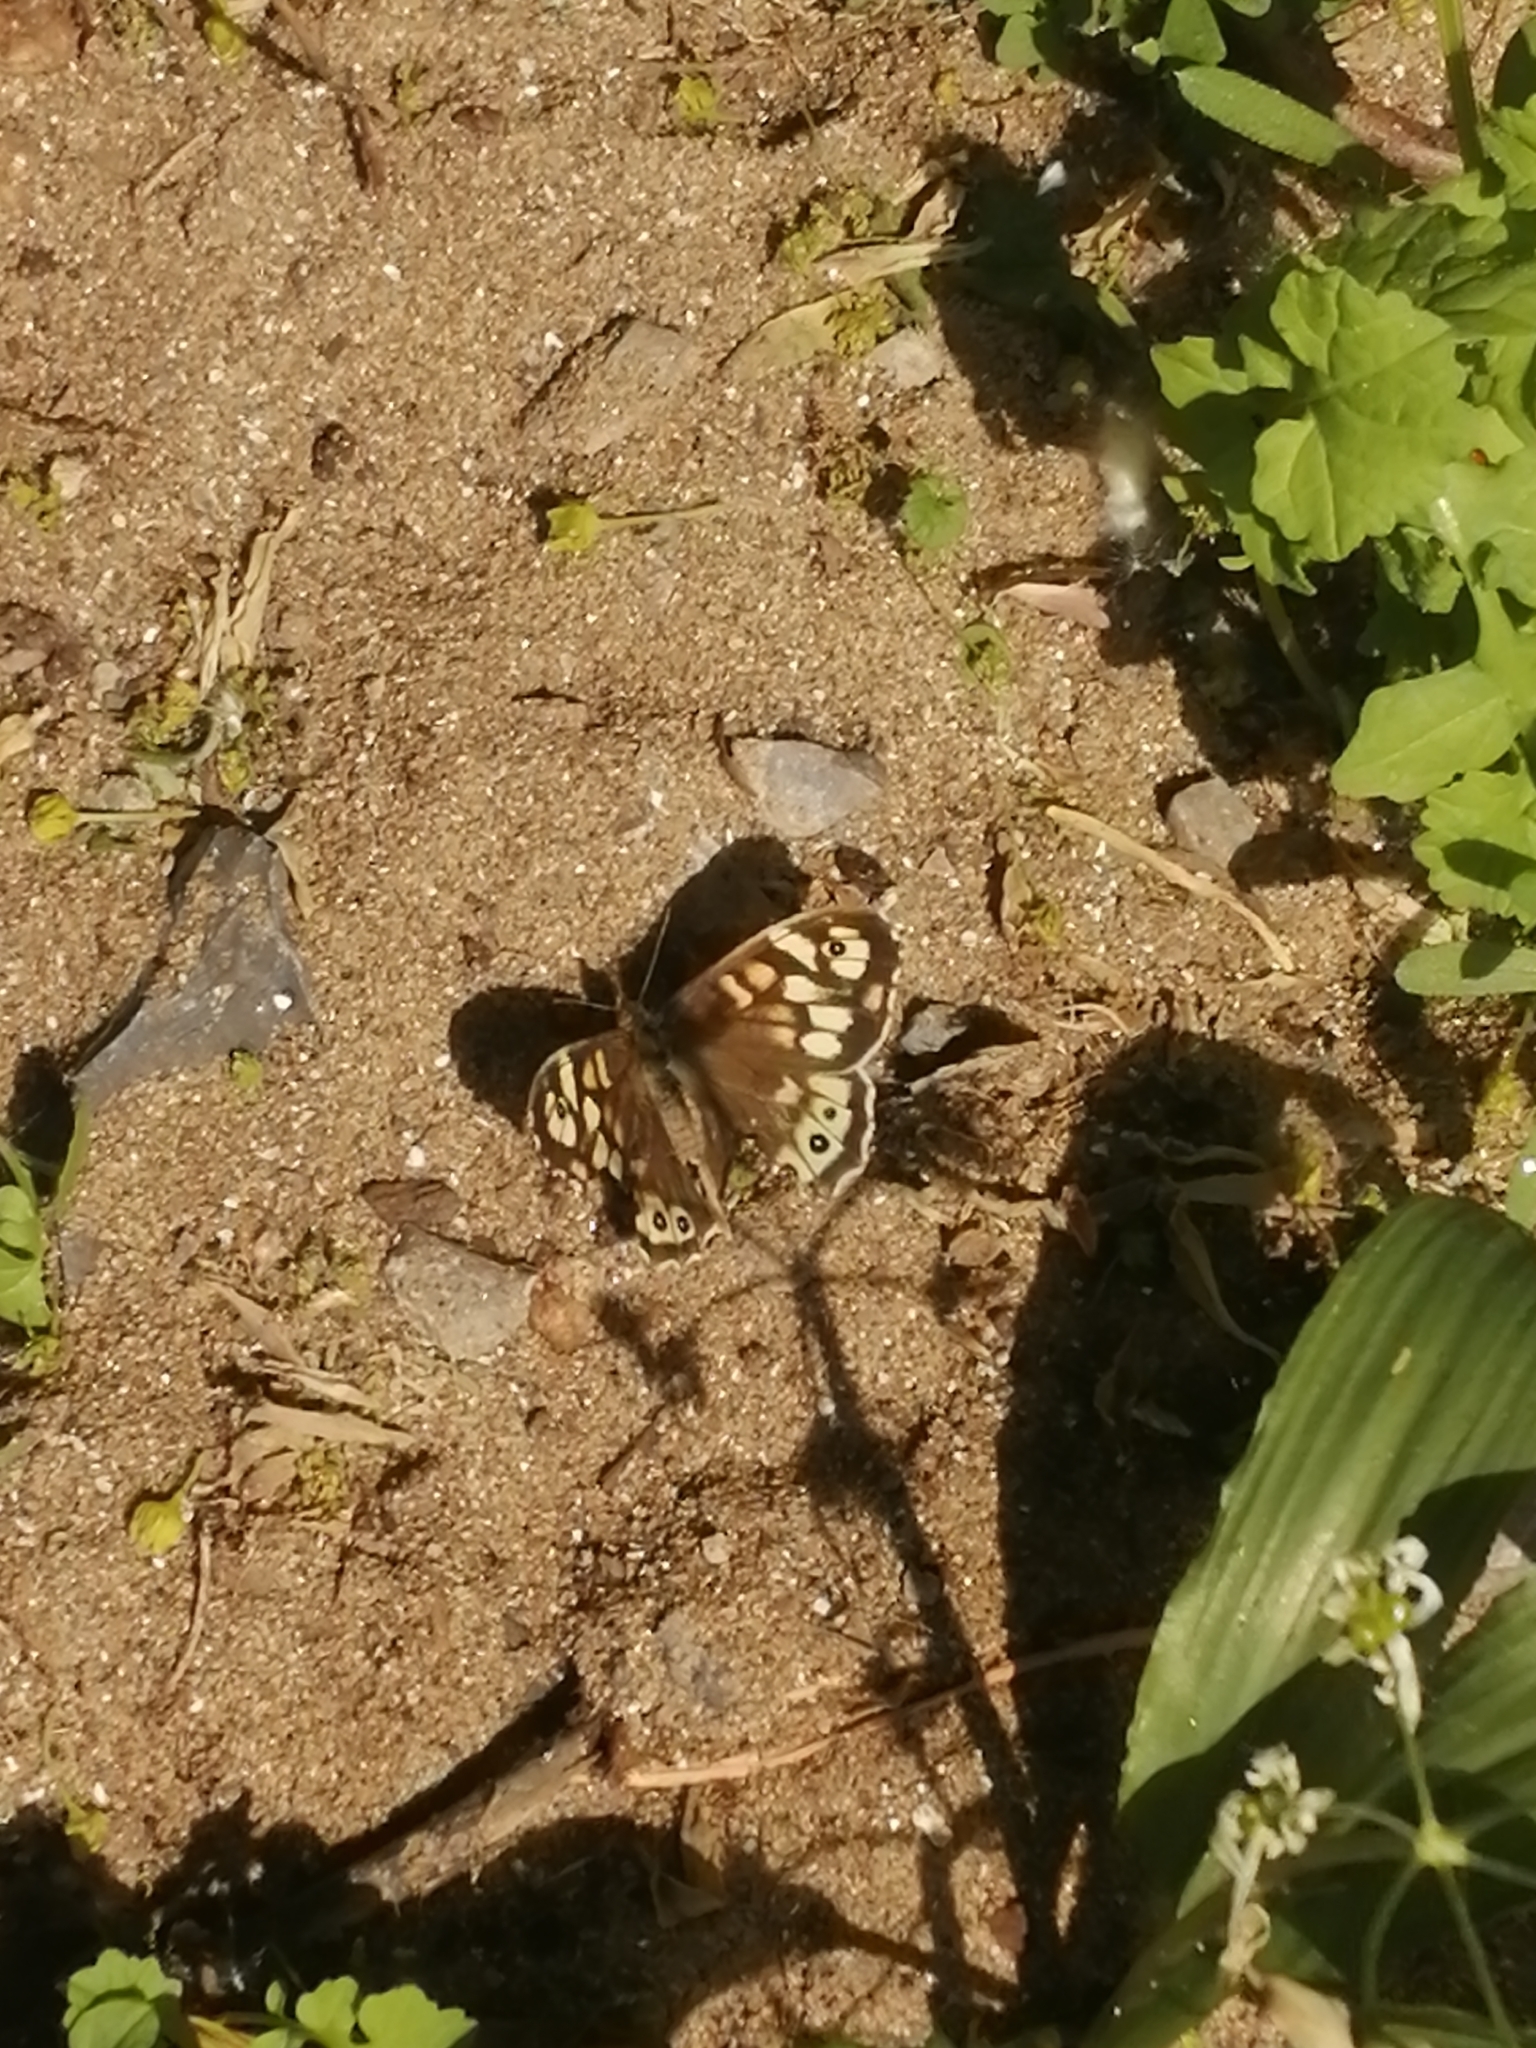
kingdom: Animalia
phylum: Arthropoda
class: Insecta
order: Lepidoptera
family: Nymphalidae
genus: Pararge
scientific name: Pararge aegeria
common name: Speckled wood
